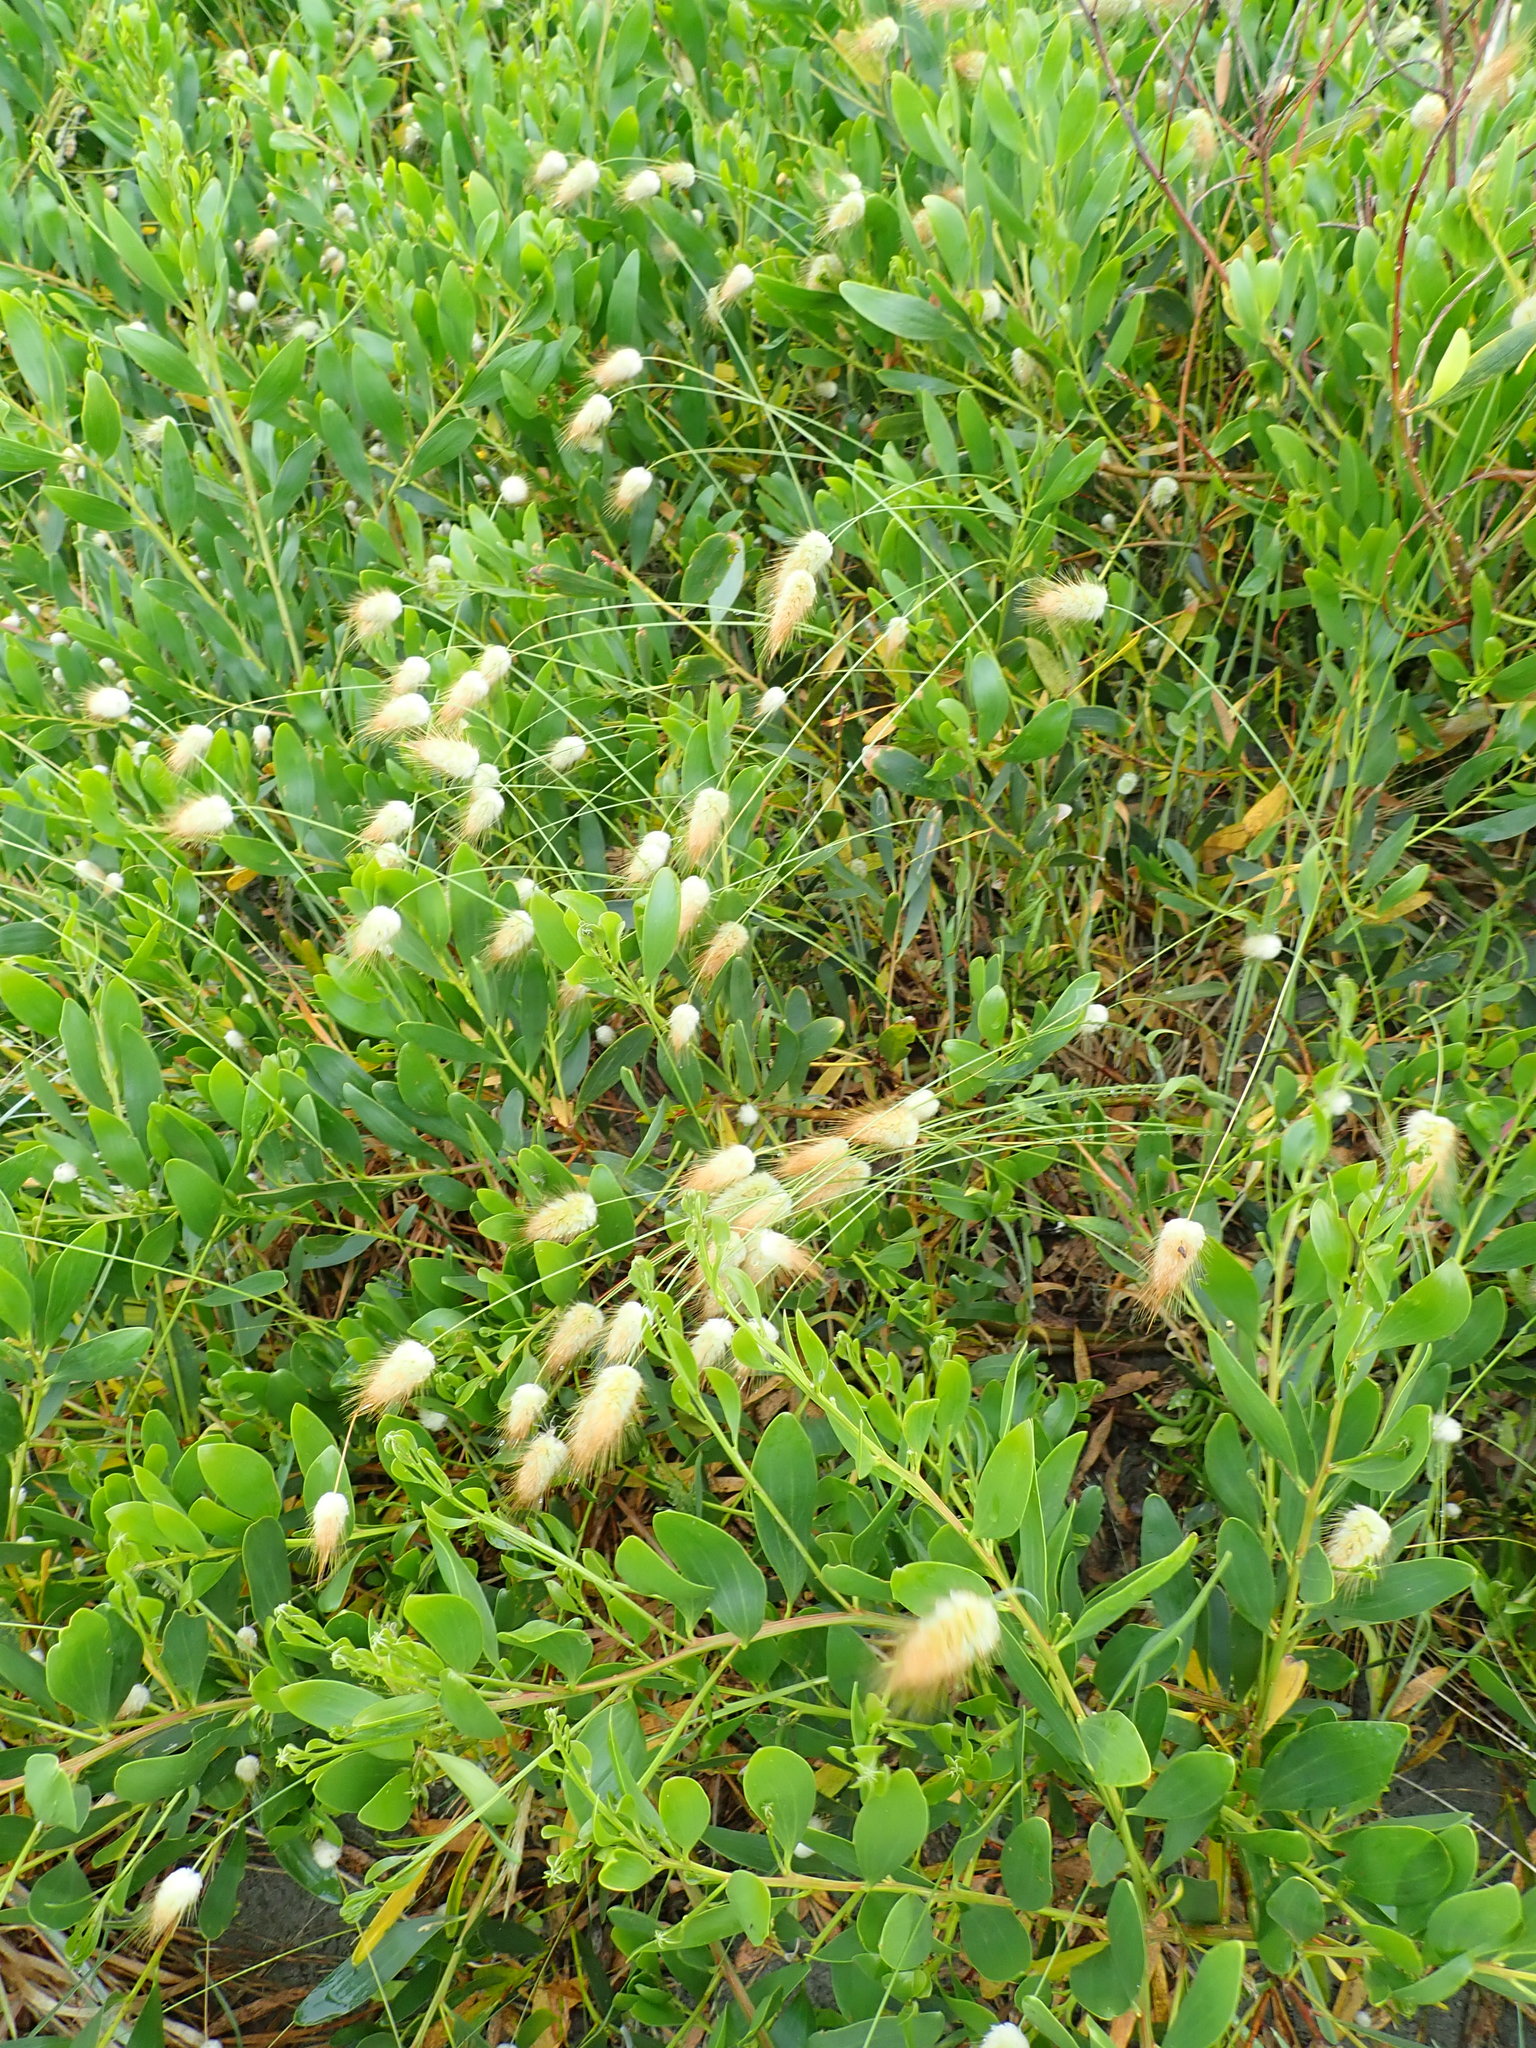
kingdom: Plantae
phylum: Tracheophyta
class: Liliopsida
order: Poales
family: Poaceae
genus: Lagurus
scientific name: Lagurus ovatus
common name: Hare's-tail
